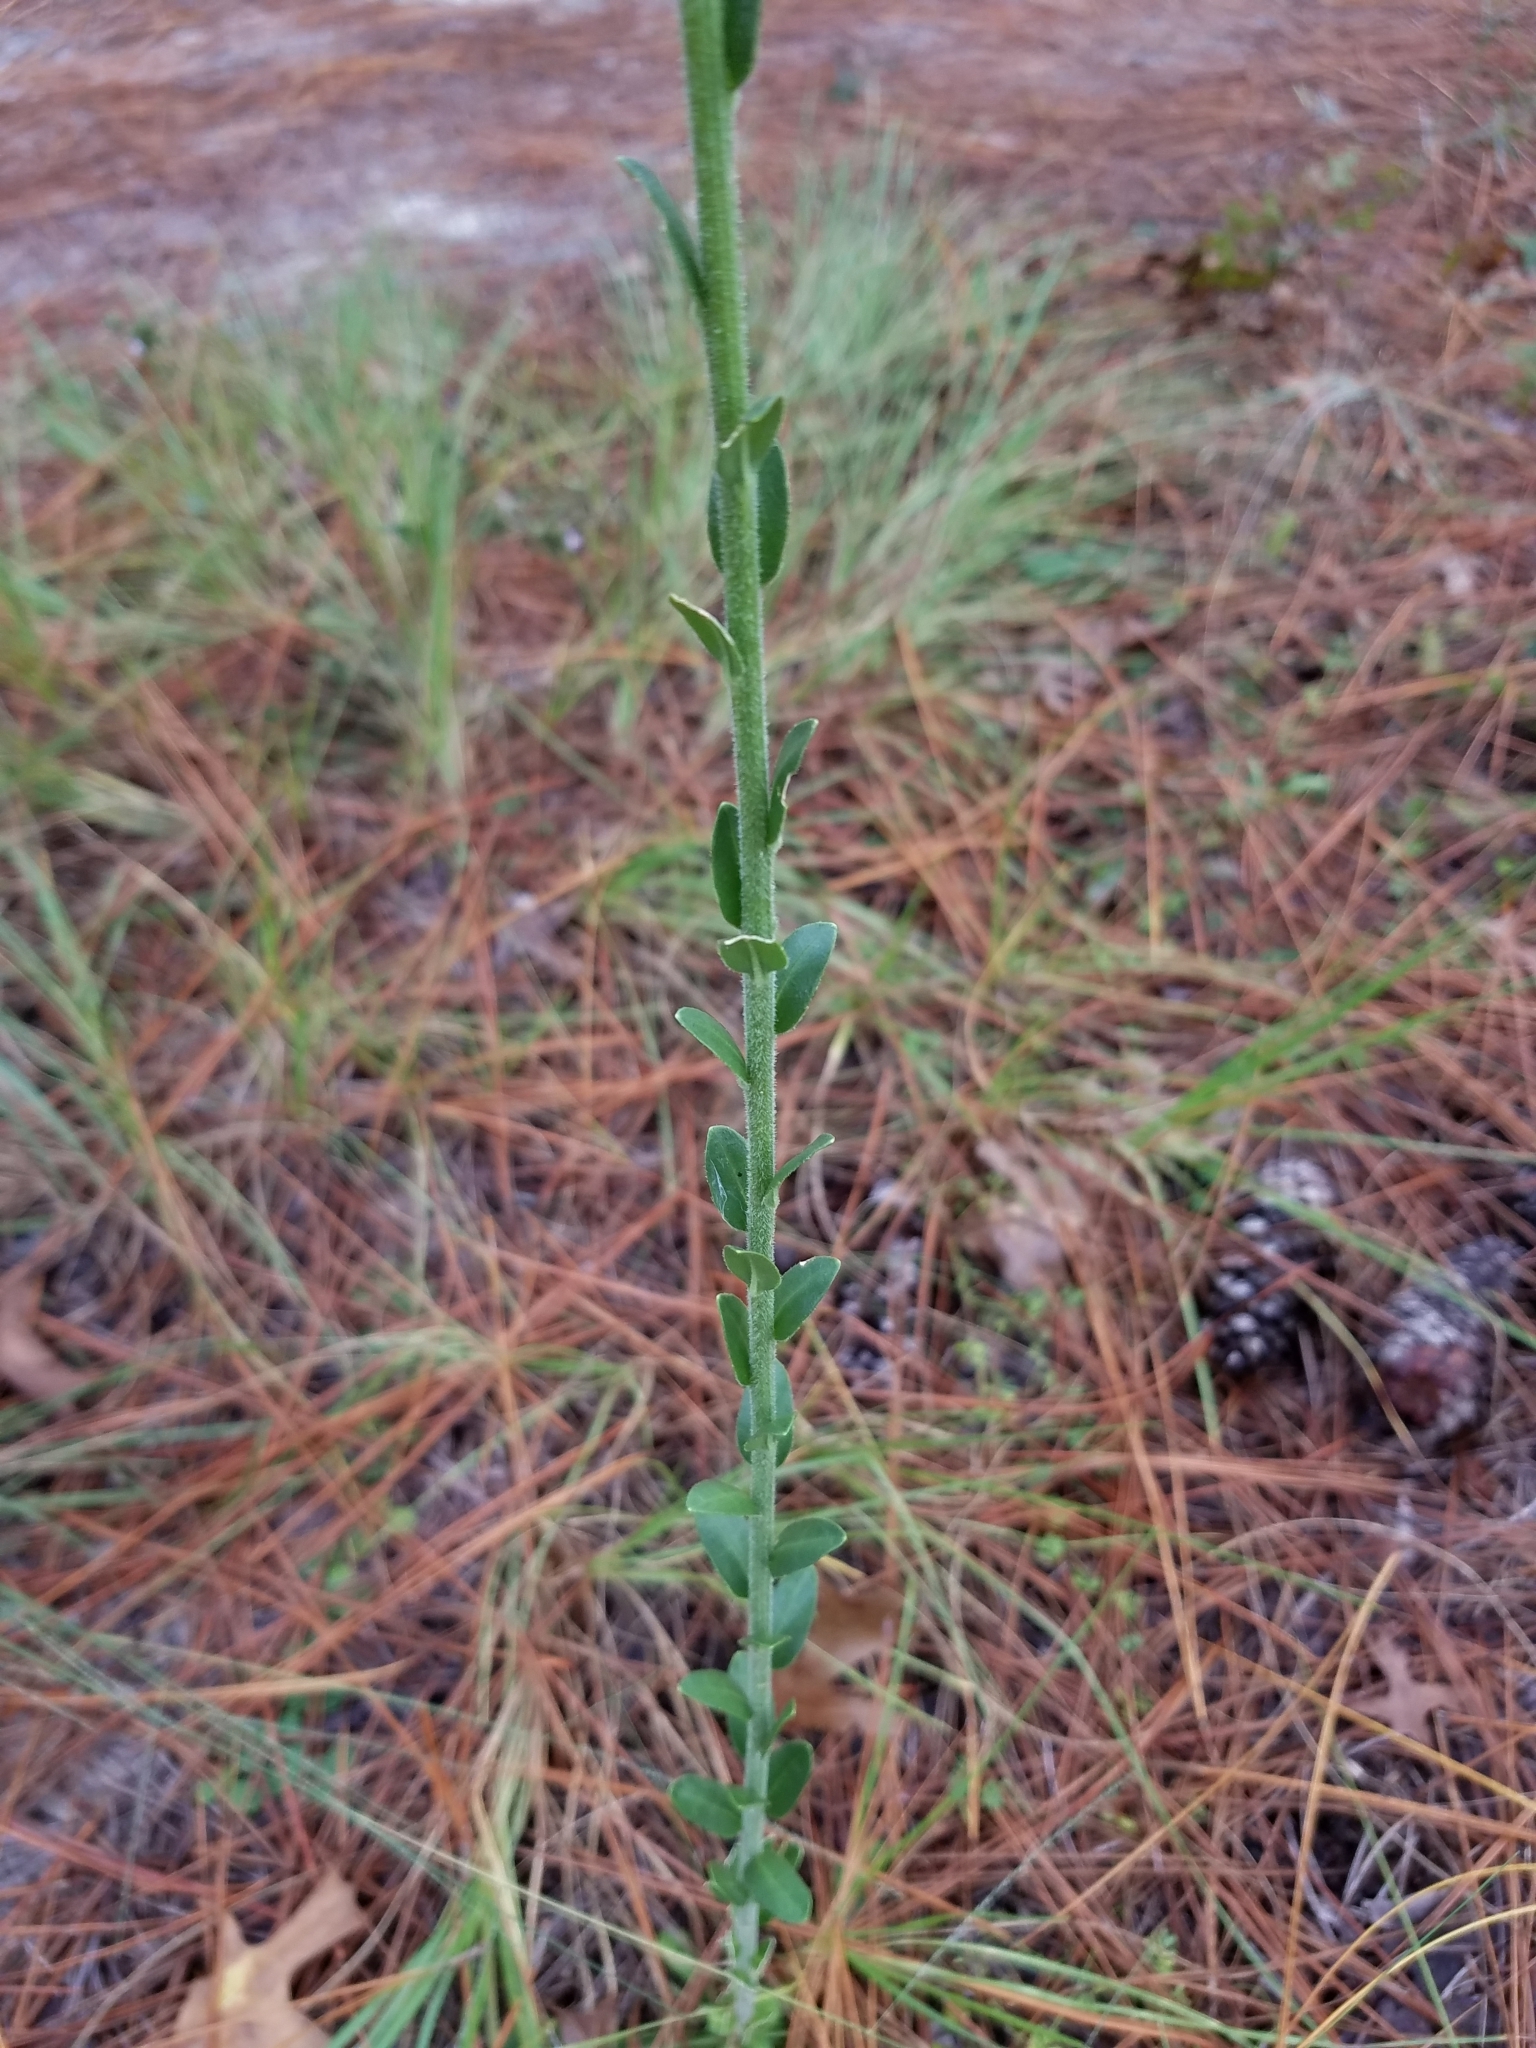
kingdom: Plantae
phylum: Tracheophyta
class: Magnoliopsida
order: Asterales
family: Asteraceae
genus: Carphephorus
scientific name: Carphephorus corymbosus
